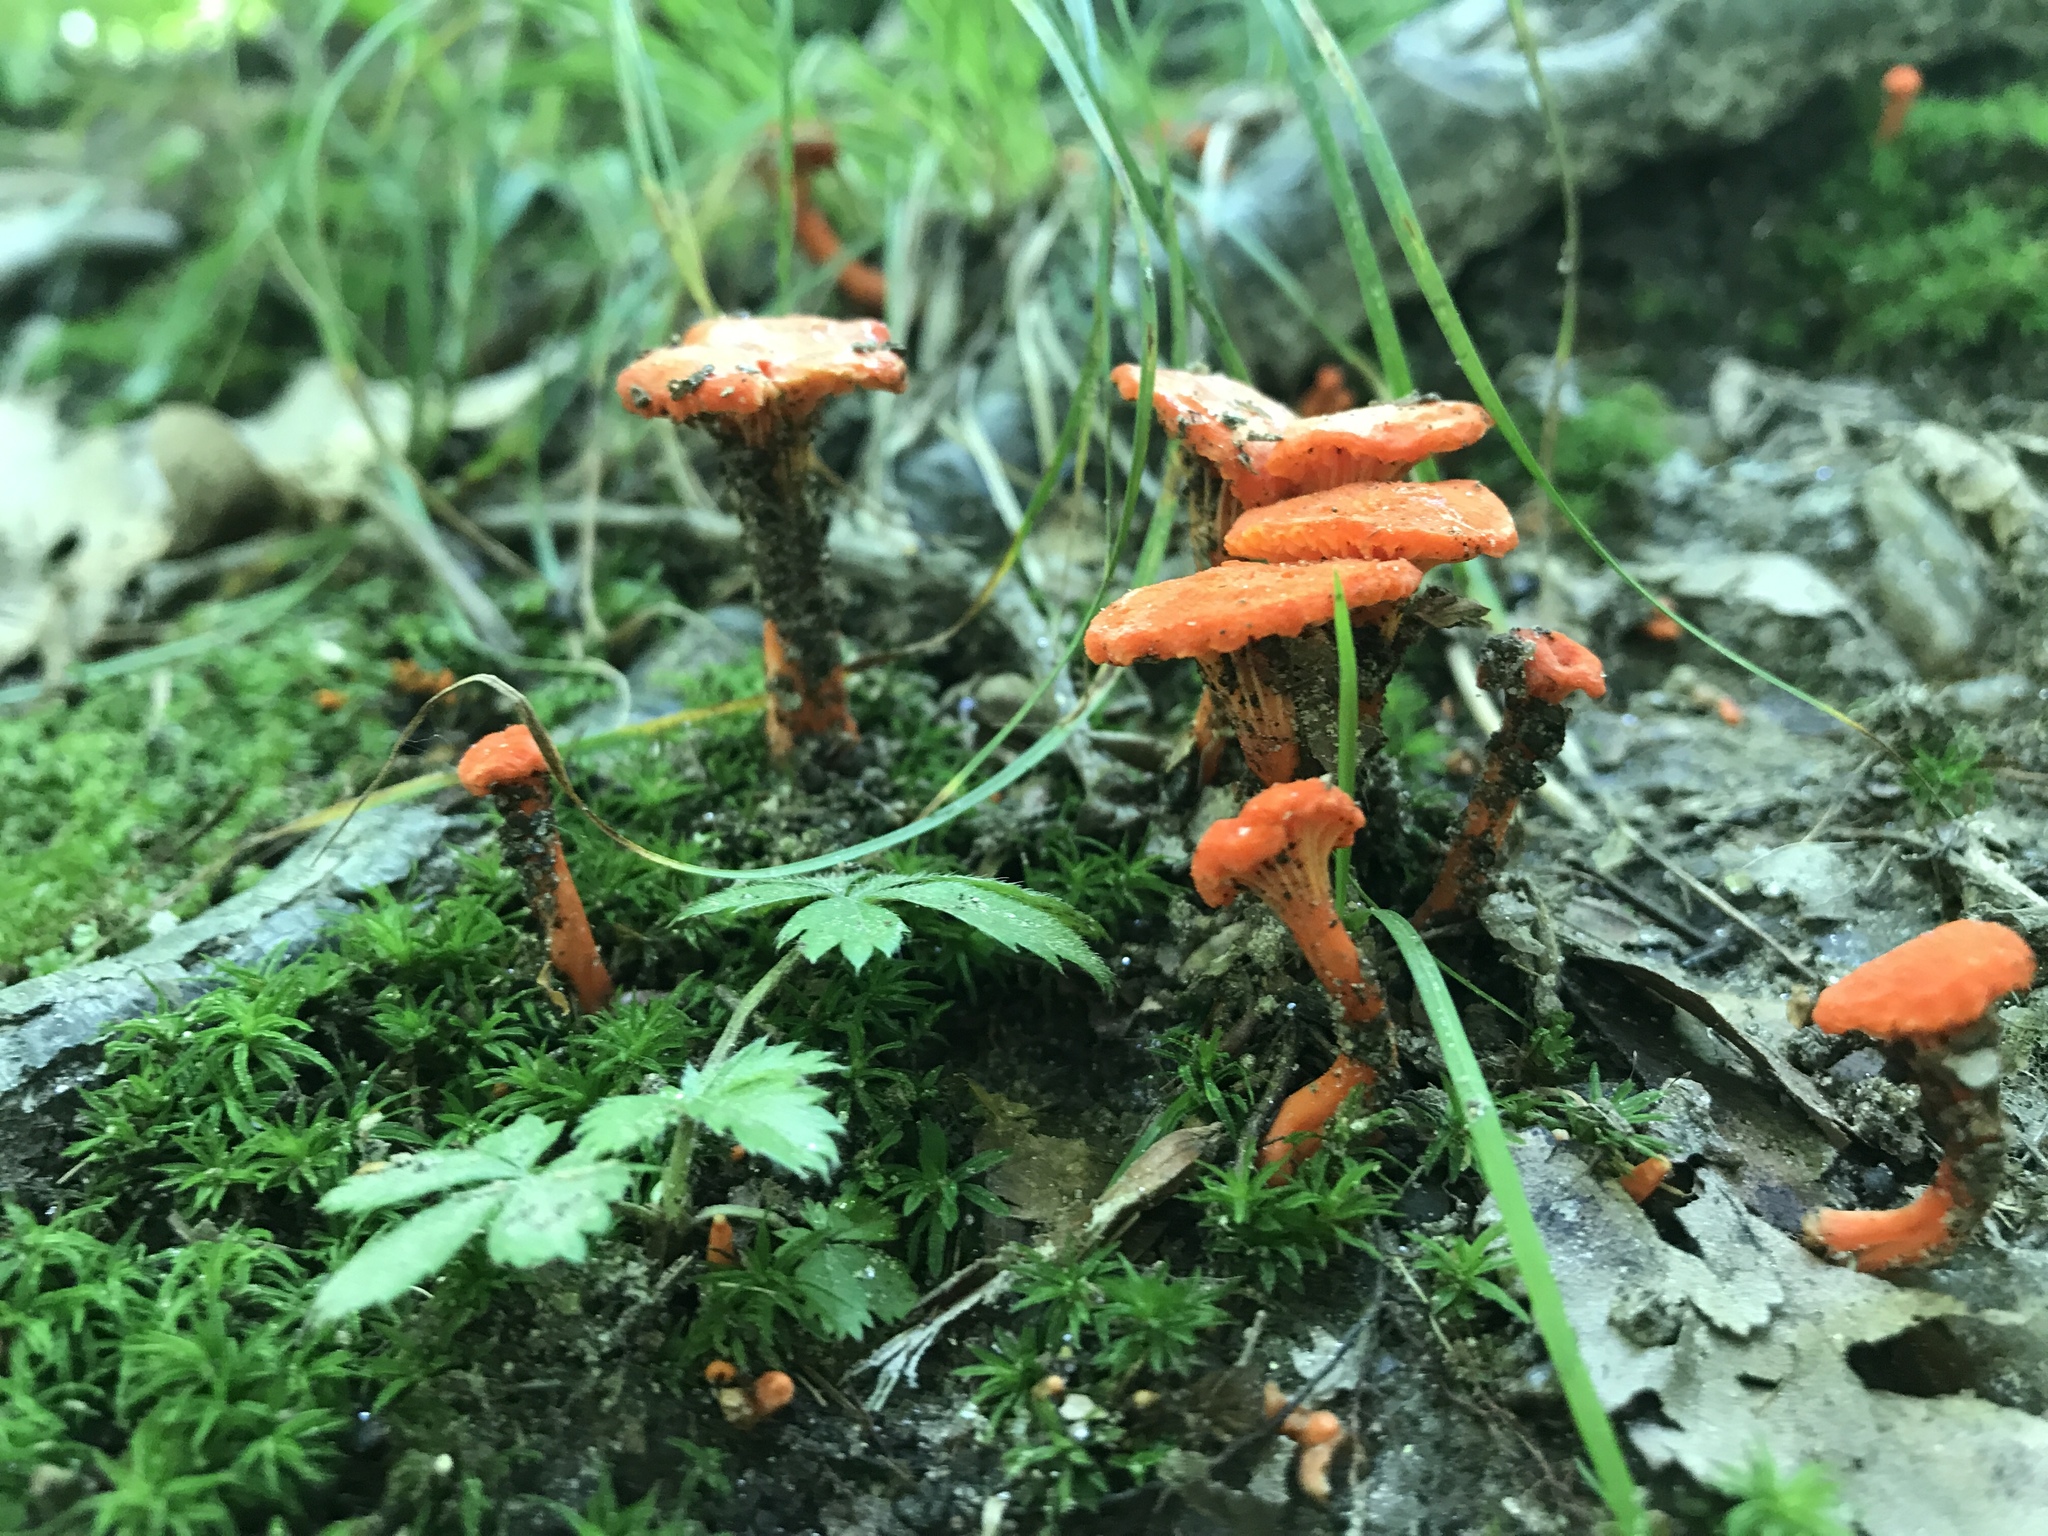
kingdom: Fungi
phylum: Basidiomycota
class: Agaricomycetes
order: Cantharellales
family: Hydnaceae
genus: Cantharellus
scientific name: Cantharellus cinnabarinus
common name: Cinnabar chanterelle
